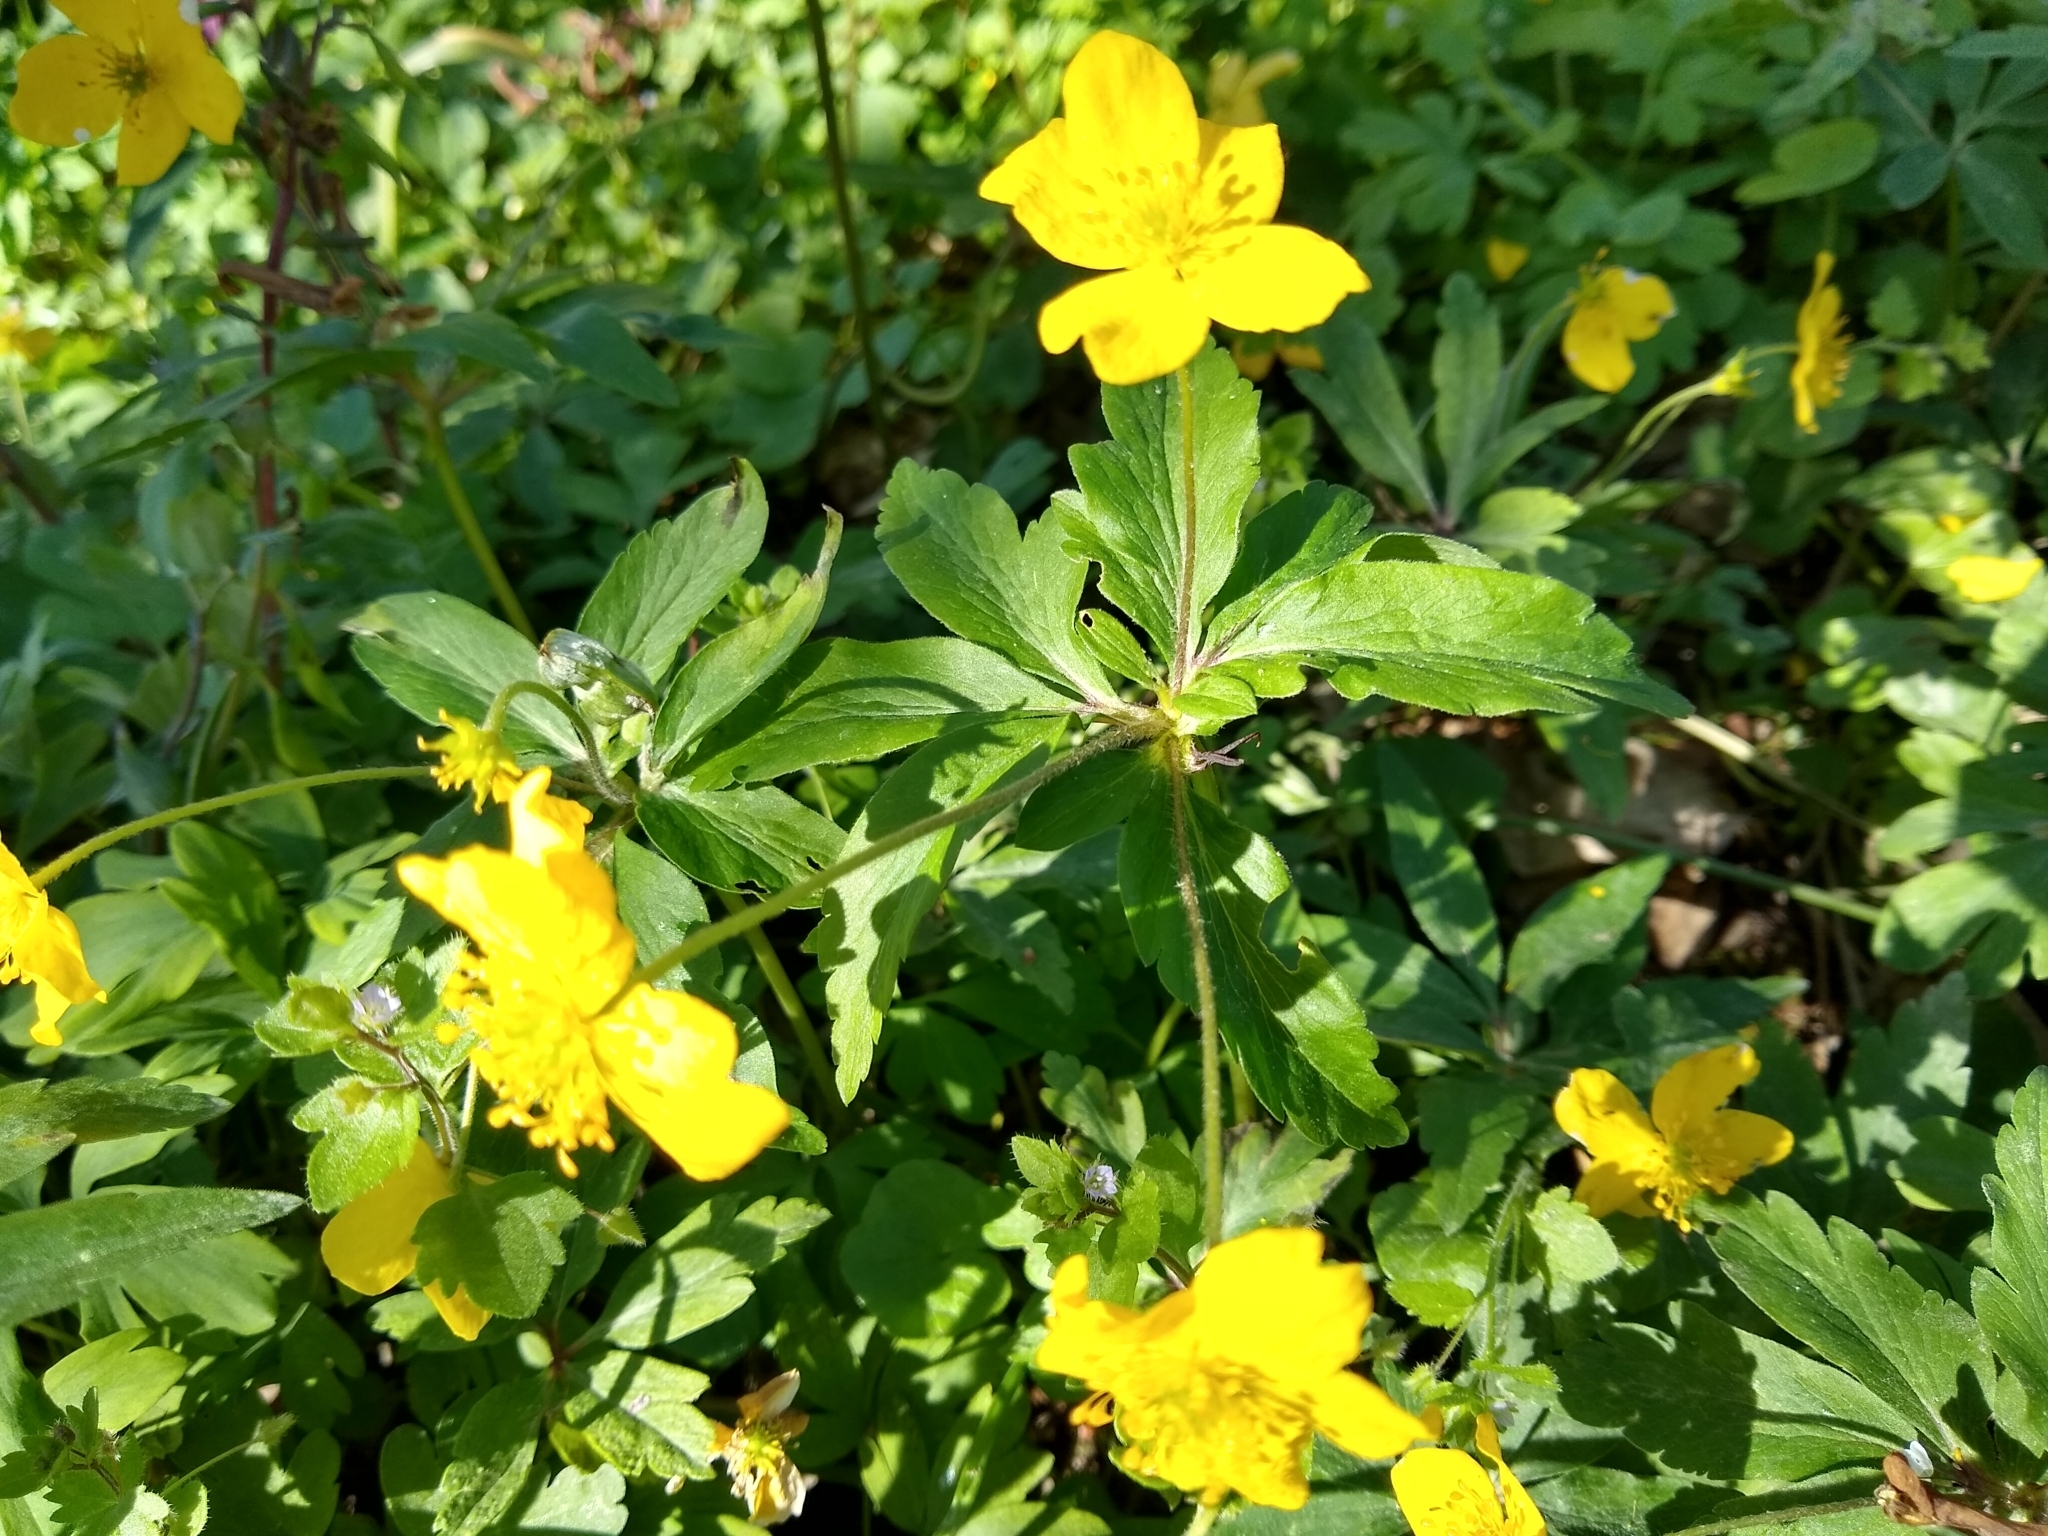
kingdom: Plantae
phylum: Tracheophyta
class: Magnoliopsida
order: Ranunculales
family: Ranunculaceae
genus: Anemone
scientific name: Anemone ranunculoides
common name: Yellow anemone
